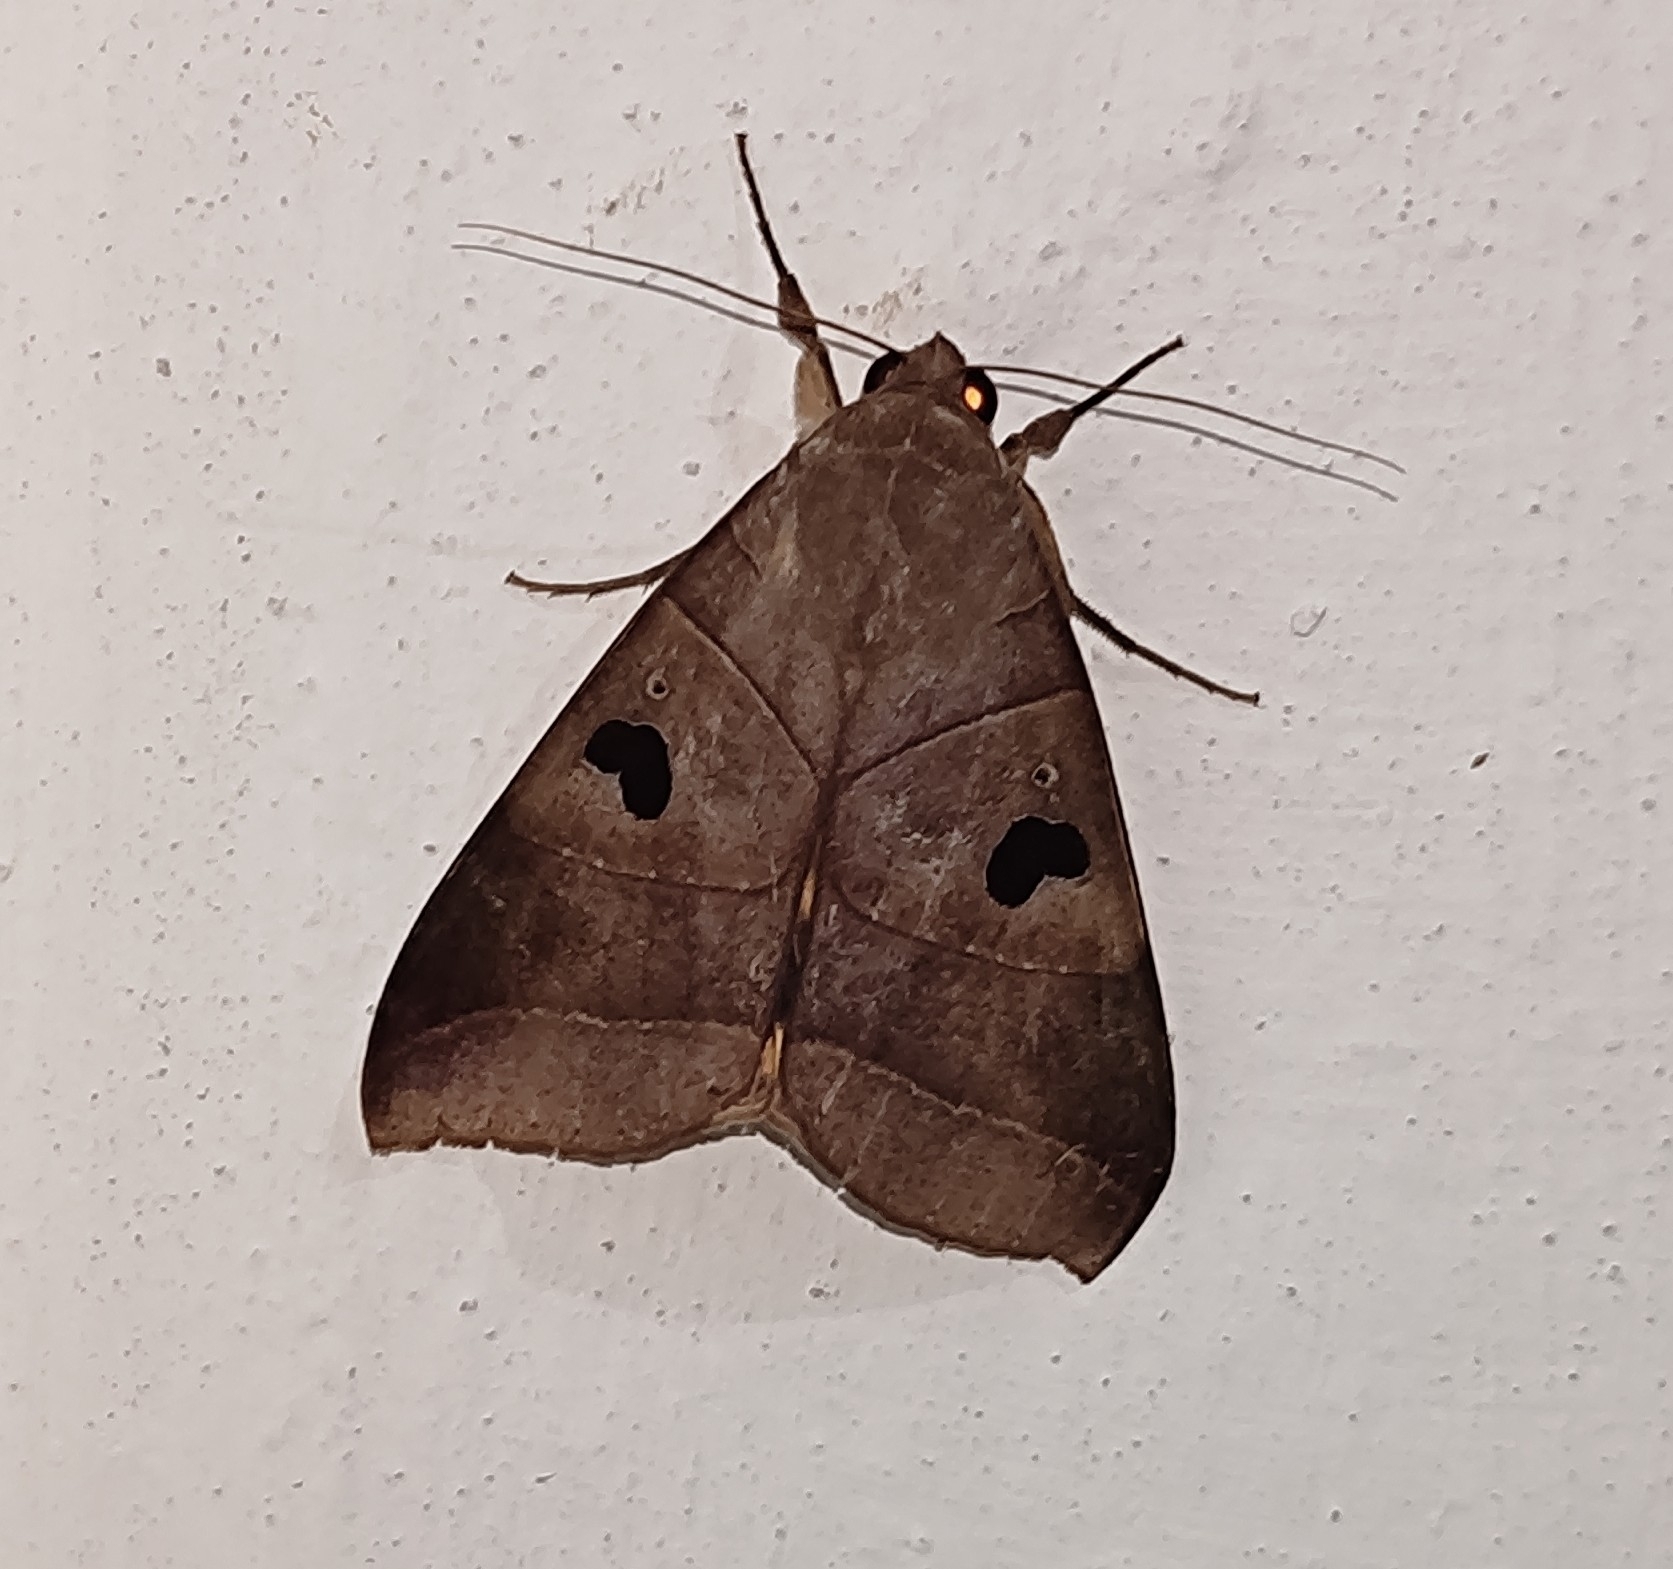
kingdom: Animalia
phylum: Arthropoda
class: Insecta
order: Lepidoptera
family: Erebidae
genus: Thyas
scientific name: Thyas coronata
